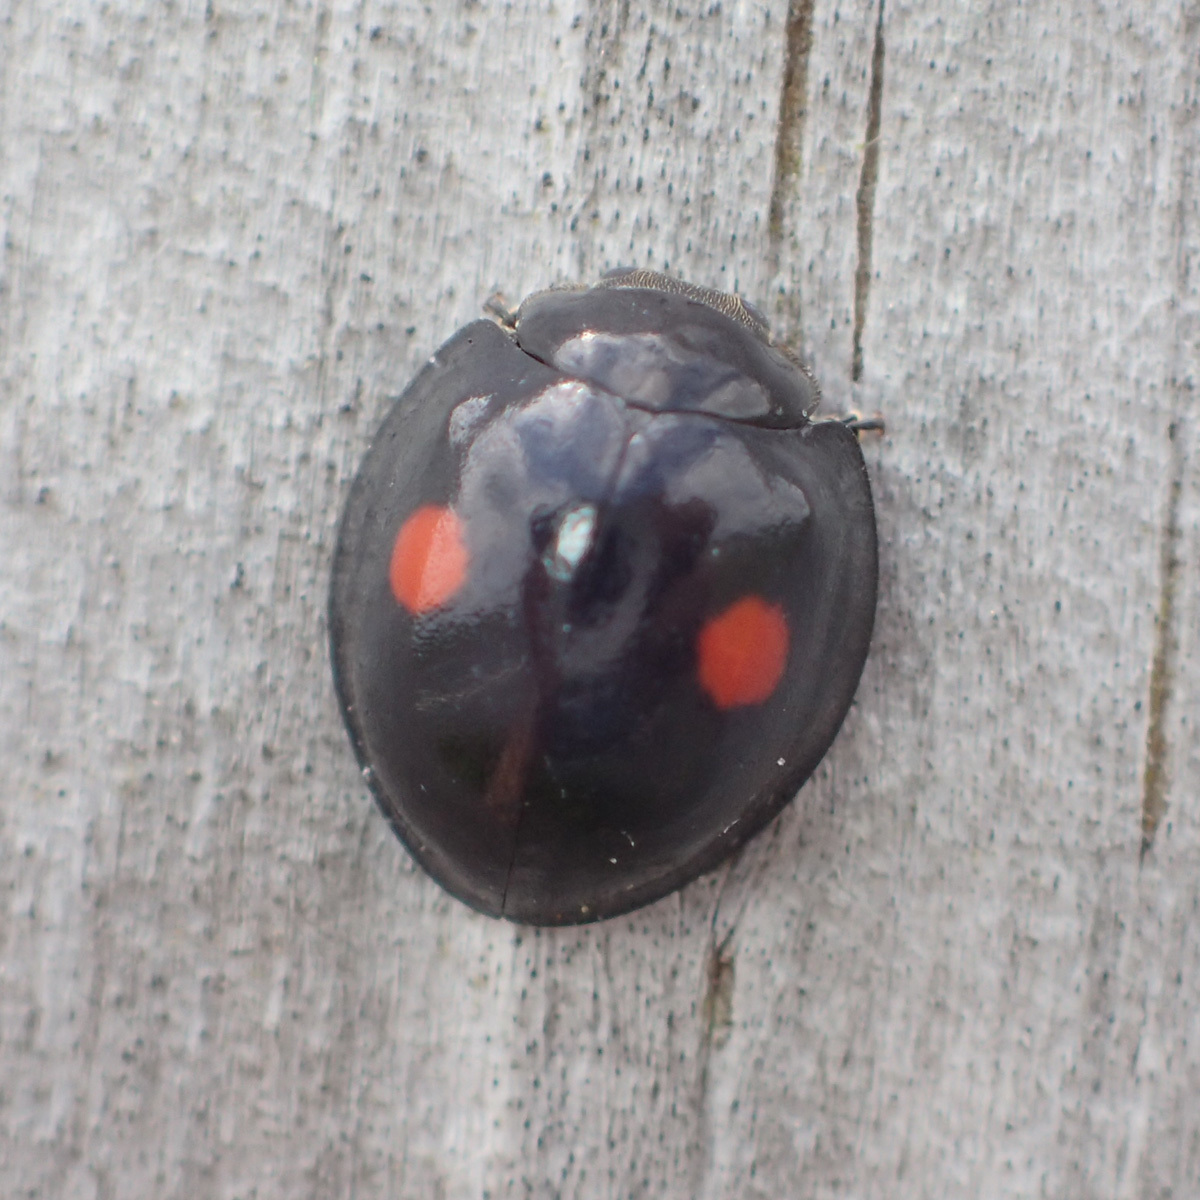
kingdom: Animalia
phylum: Arthropoda
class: Insecta
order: Coleoptera
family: Coccinellidae
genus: Chilocorus
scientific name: Chilocorus stigma
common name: Twicestabbed lady beetle
